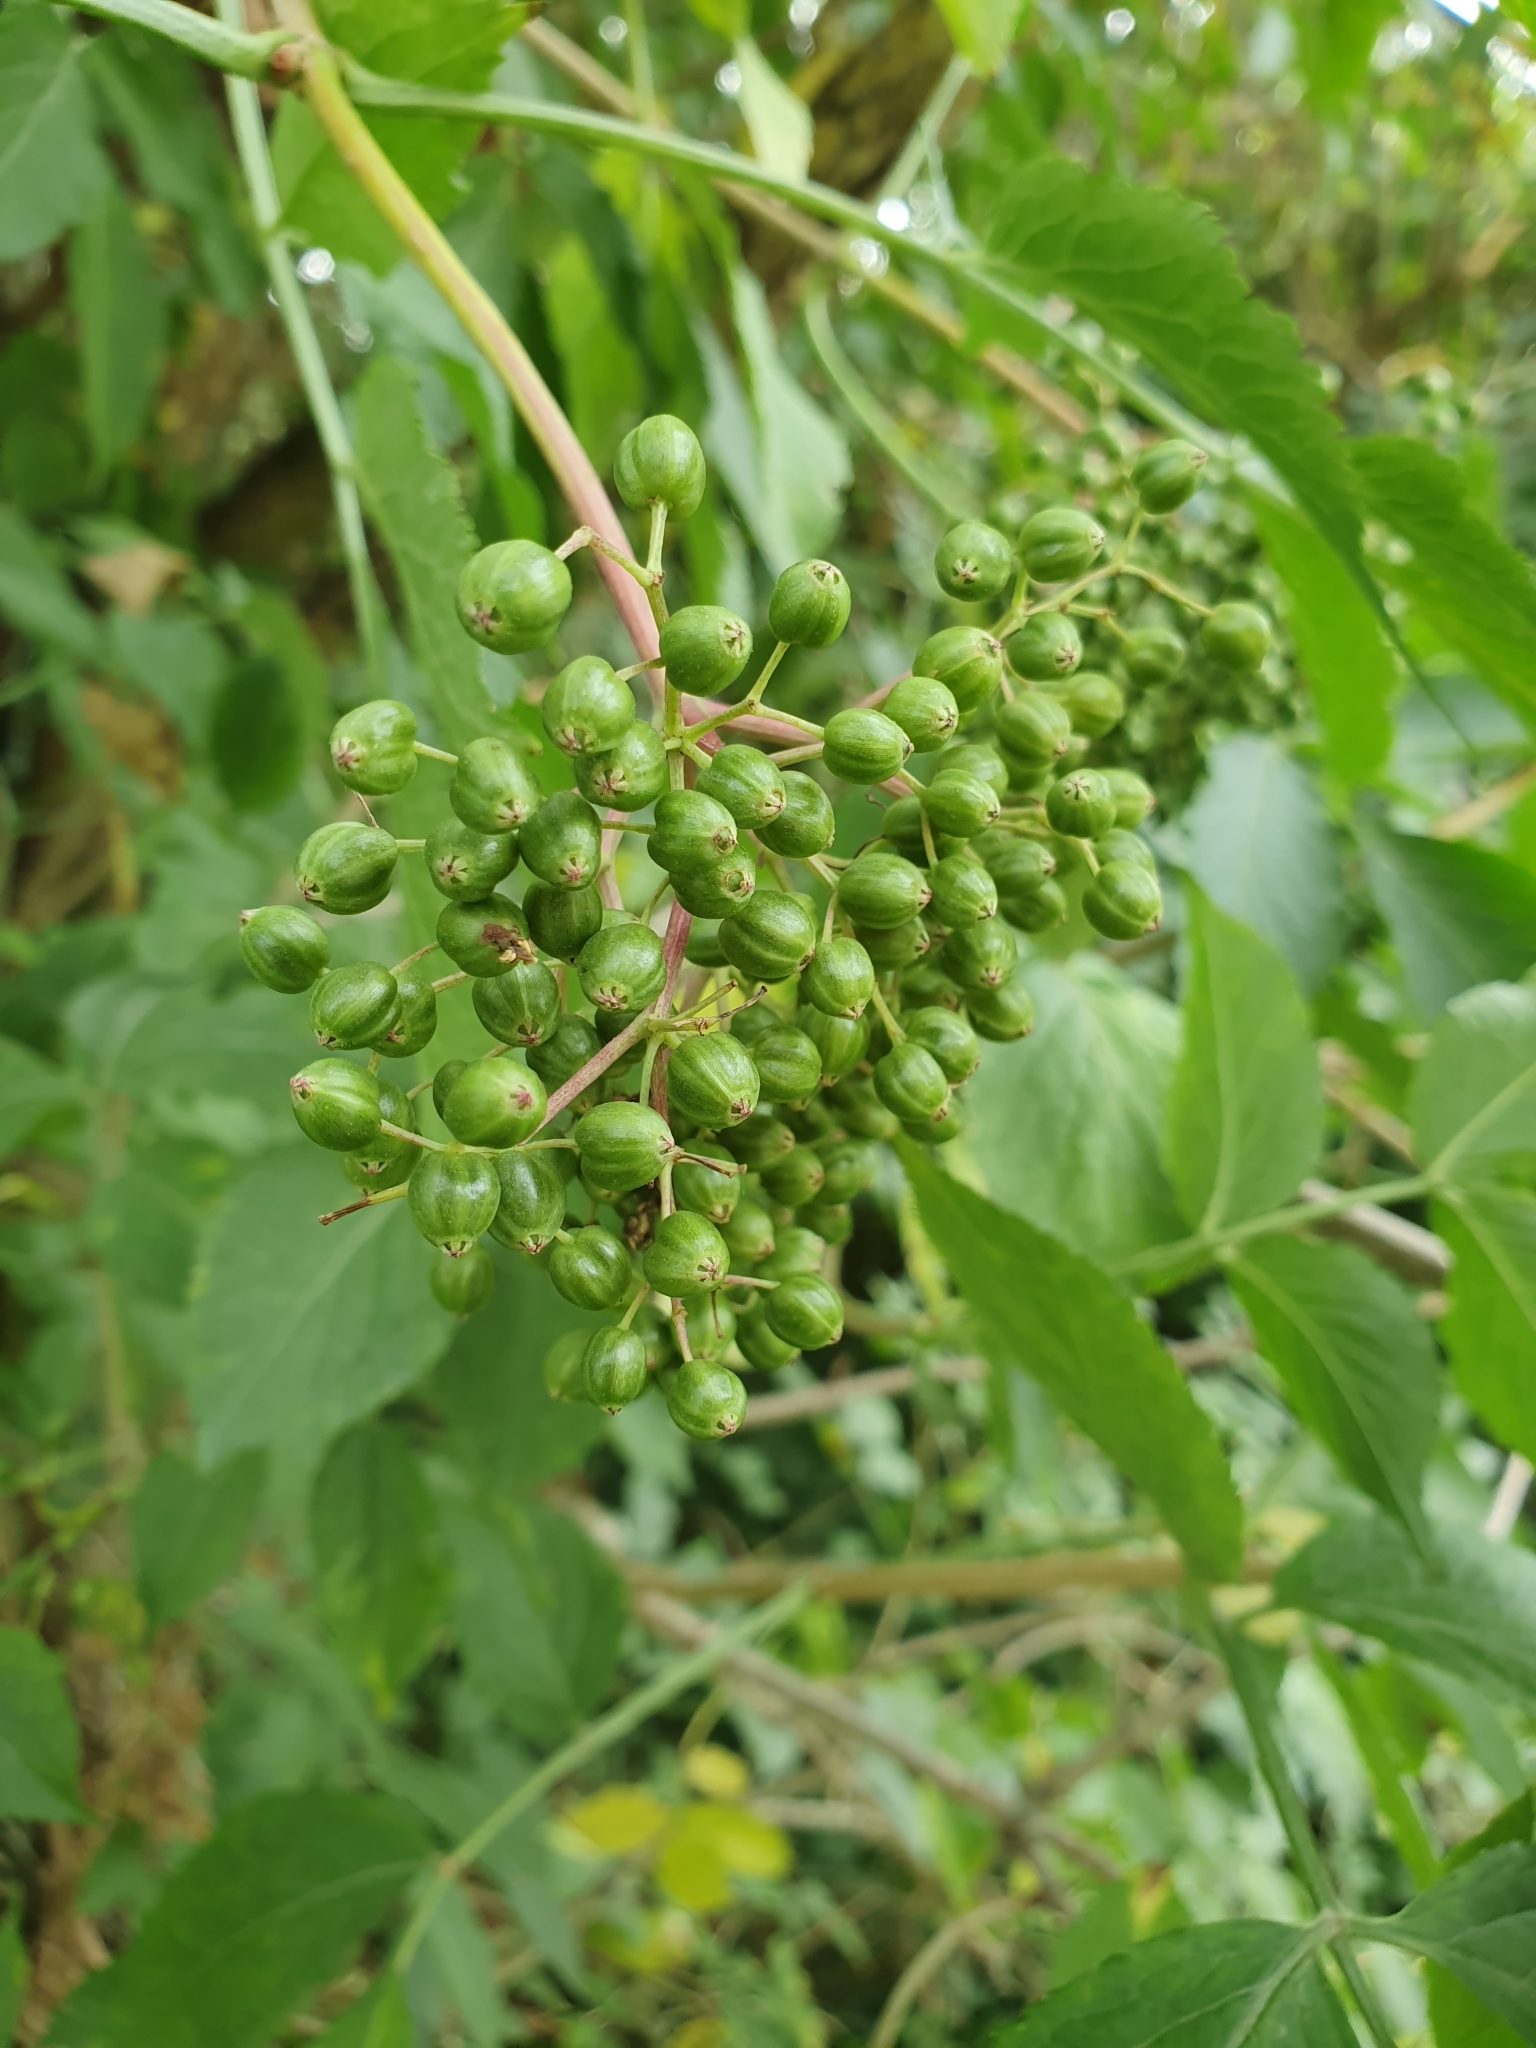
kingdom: Plantae
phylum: Tracheophyta
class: Magnoliopsida
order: Dipsacales
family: Viburnaceae
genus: Sambucus
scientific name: Sambucus nigra
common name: Elder
